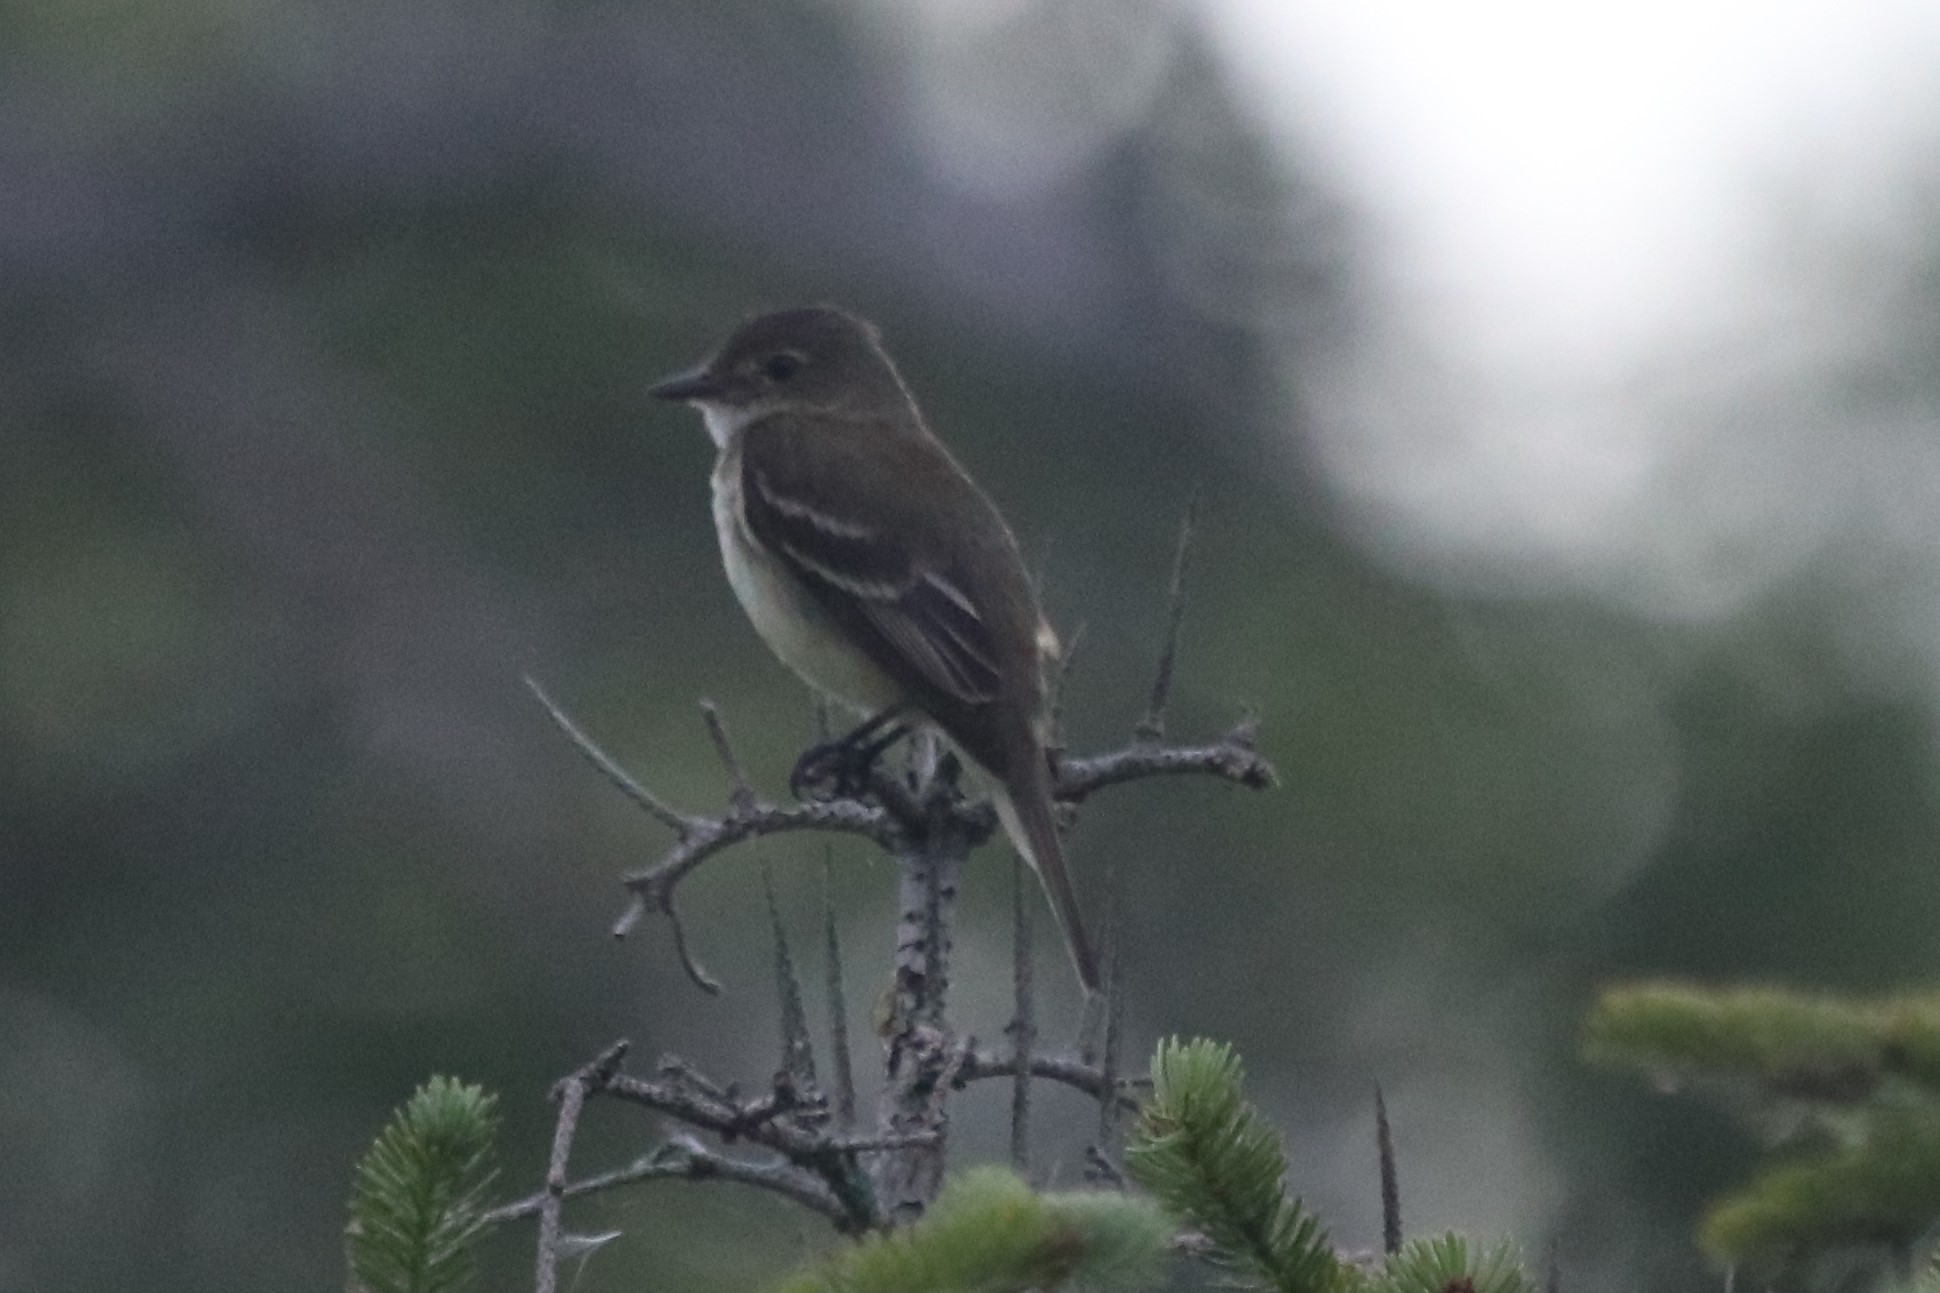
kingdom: Animalia
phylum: Chordata
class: Aves
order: Passeriformes
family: Tyrannidae
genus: Empidonax
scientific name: Empidonax alnorum
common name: Alder flycatcher
